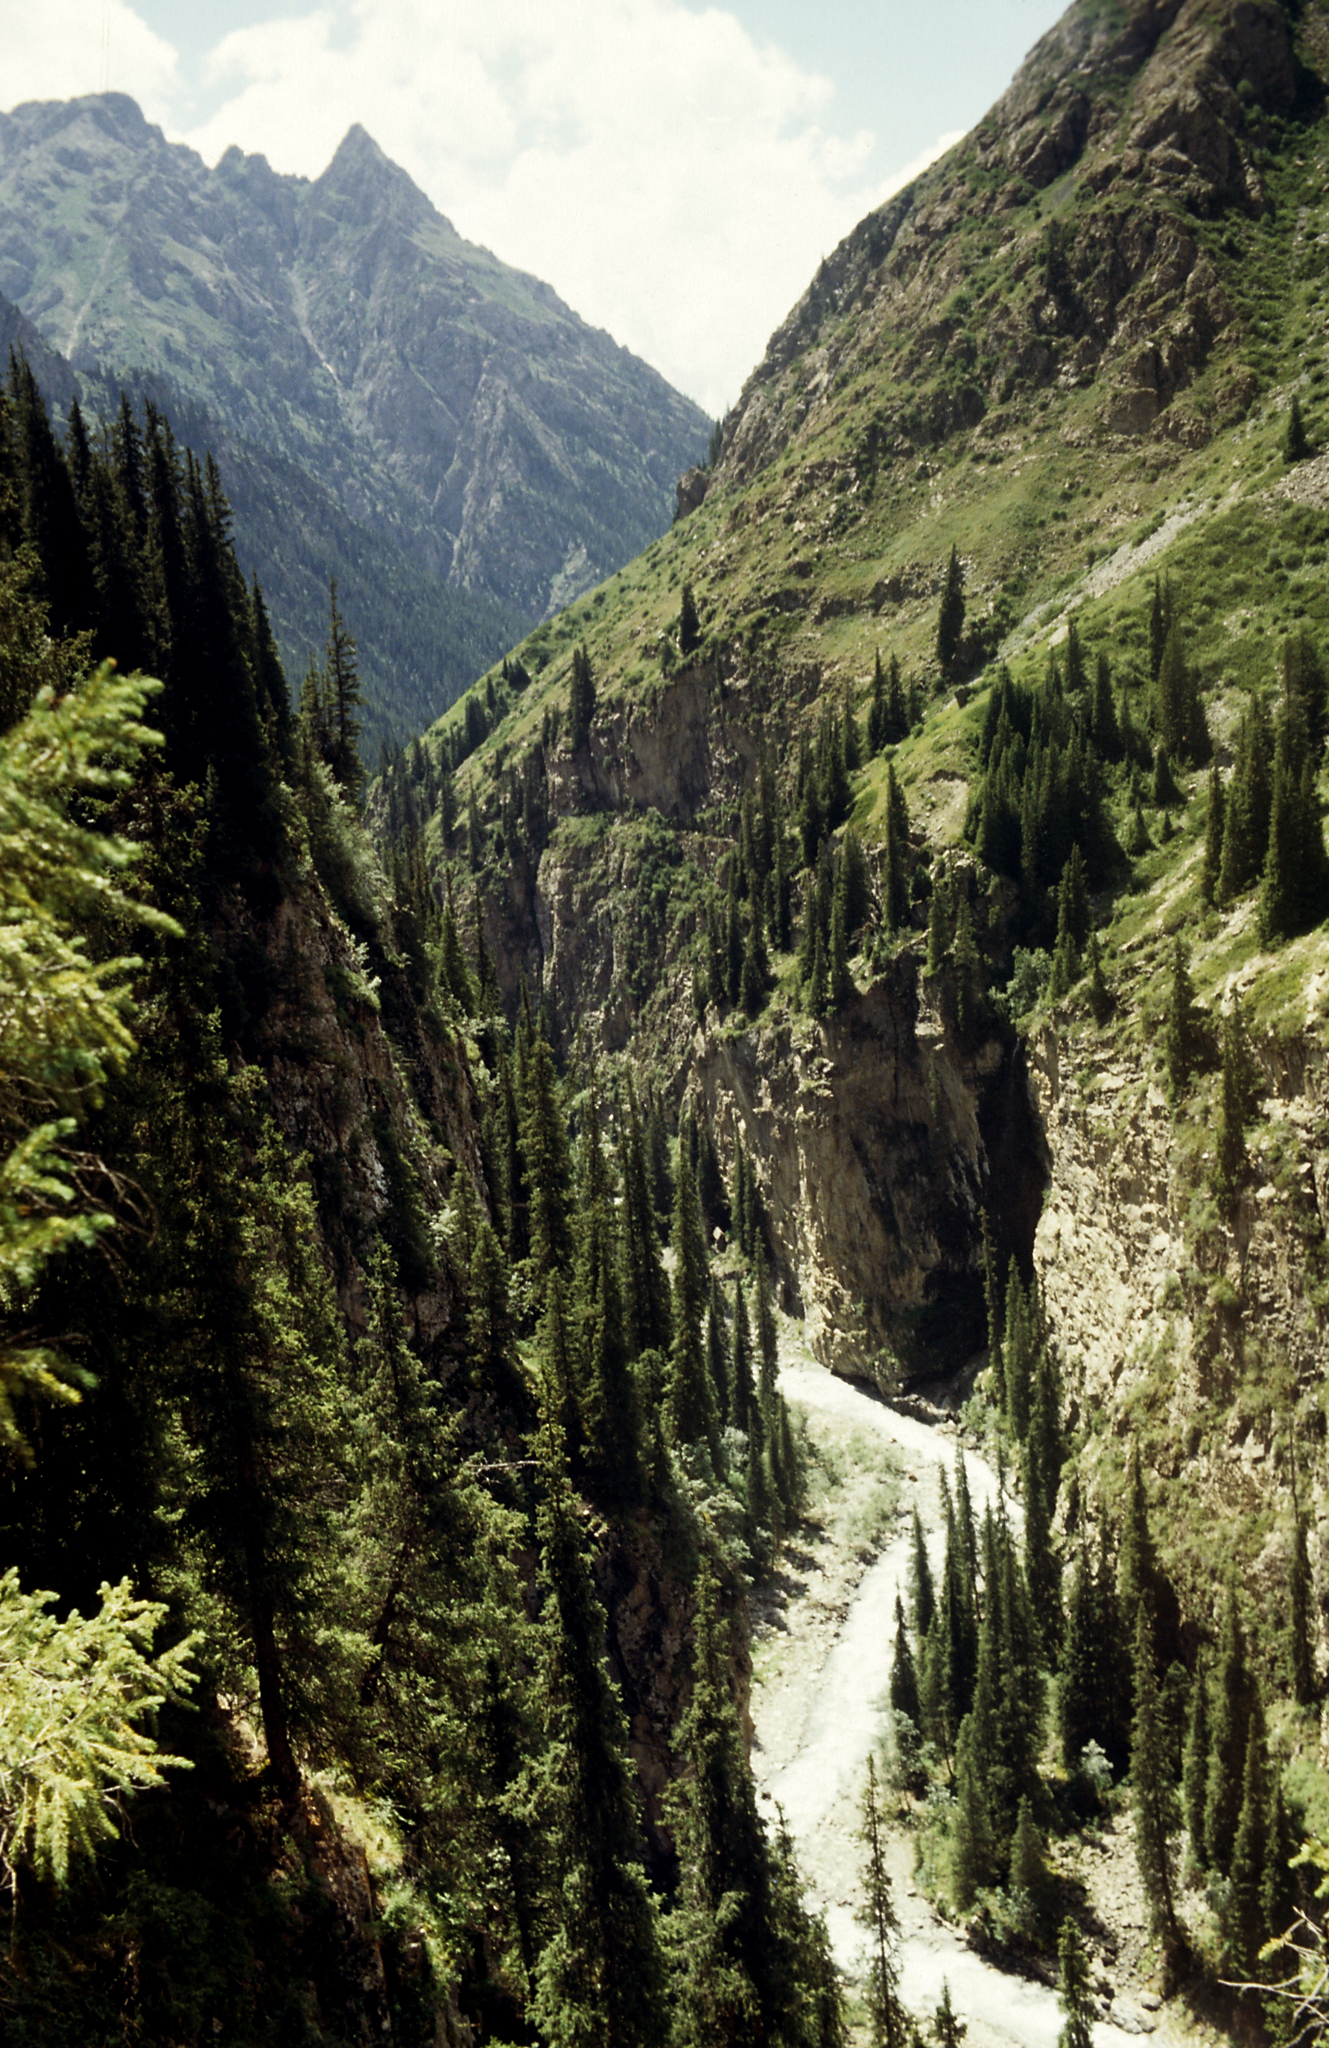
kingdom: Plantae
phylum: Tracheophyta
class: Pinopsida
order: Pinales
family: Pinaceae
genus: Picea
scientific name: Picea schrenkiana
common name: Asian spruce
